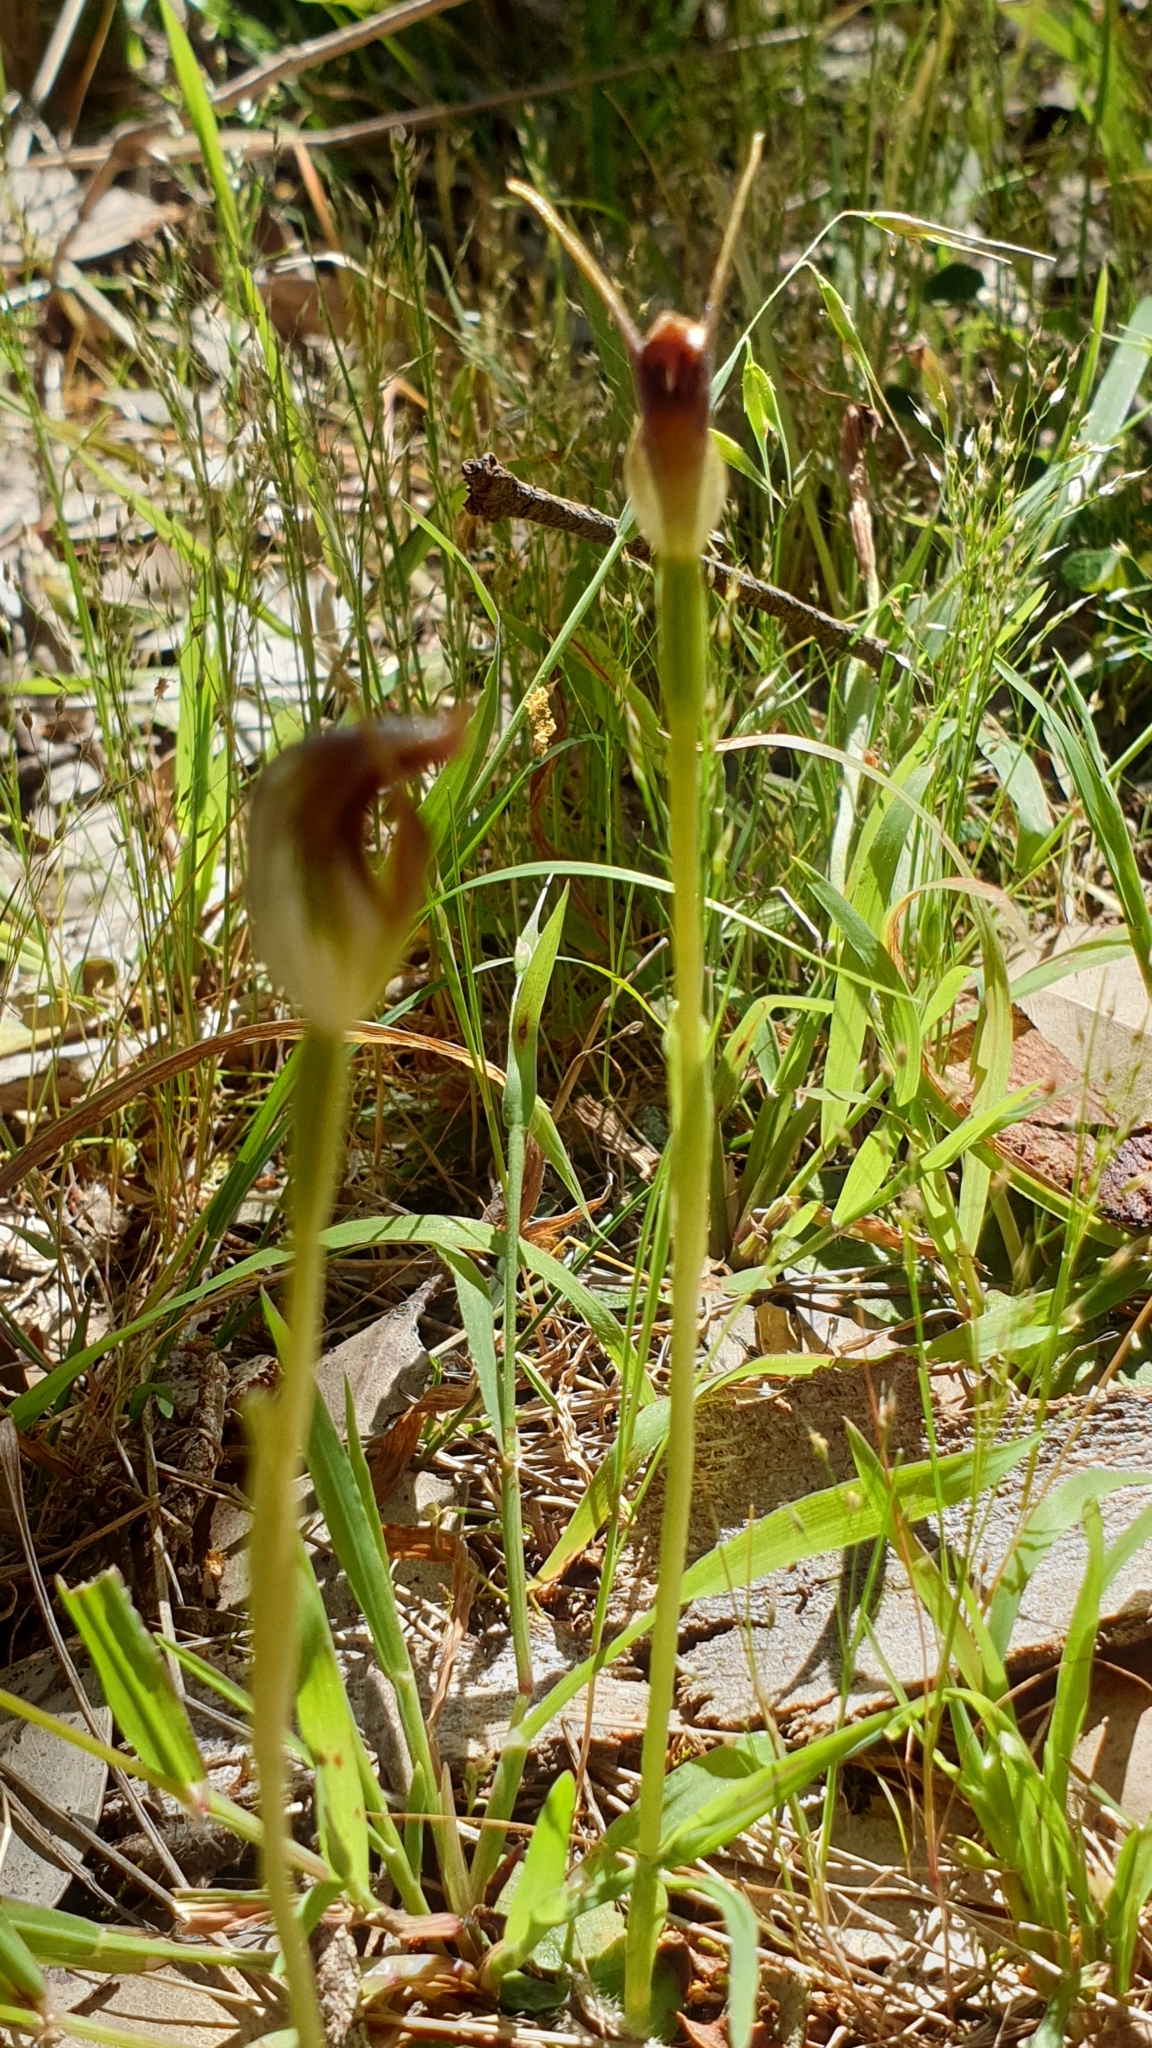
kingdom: Plantae
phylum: Tracheophyta
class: Liliopsida
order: Asparagales
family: Orchidaceae
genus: Pterostylis
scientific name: Pterostylis pedunculata
